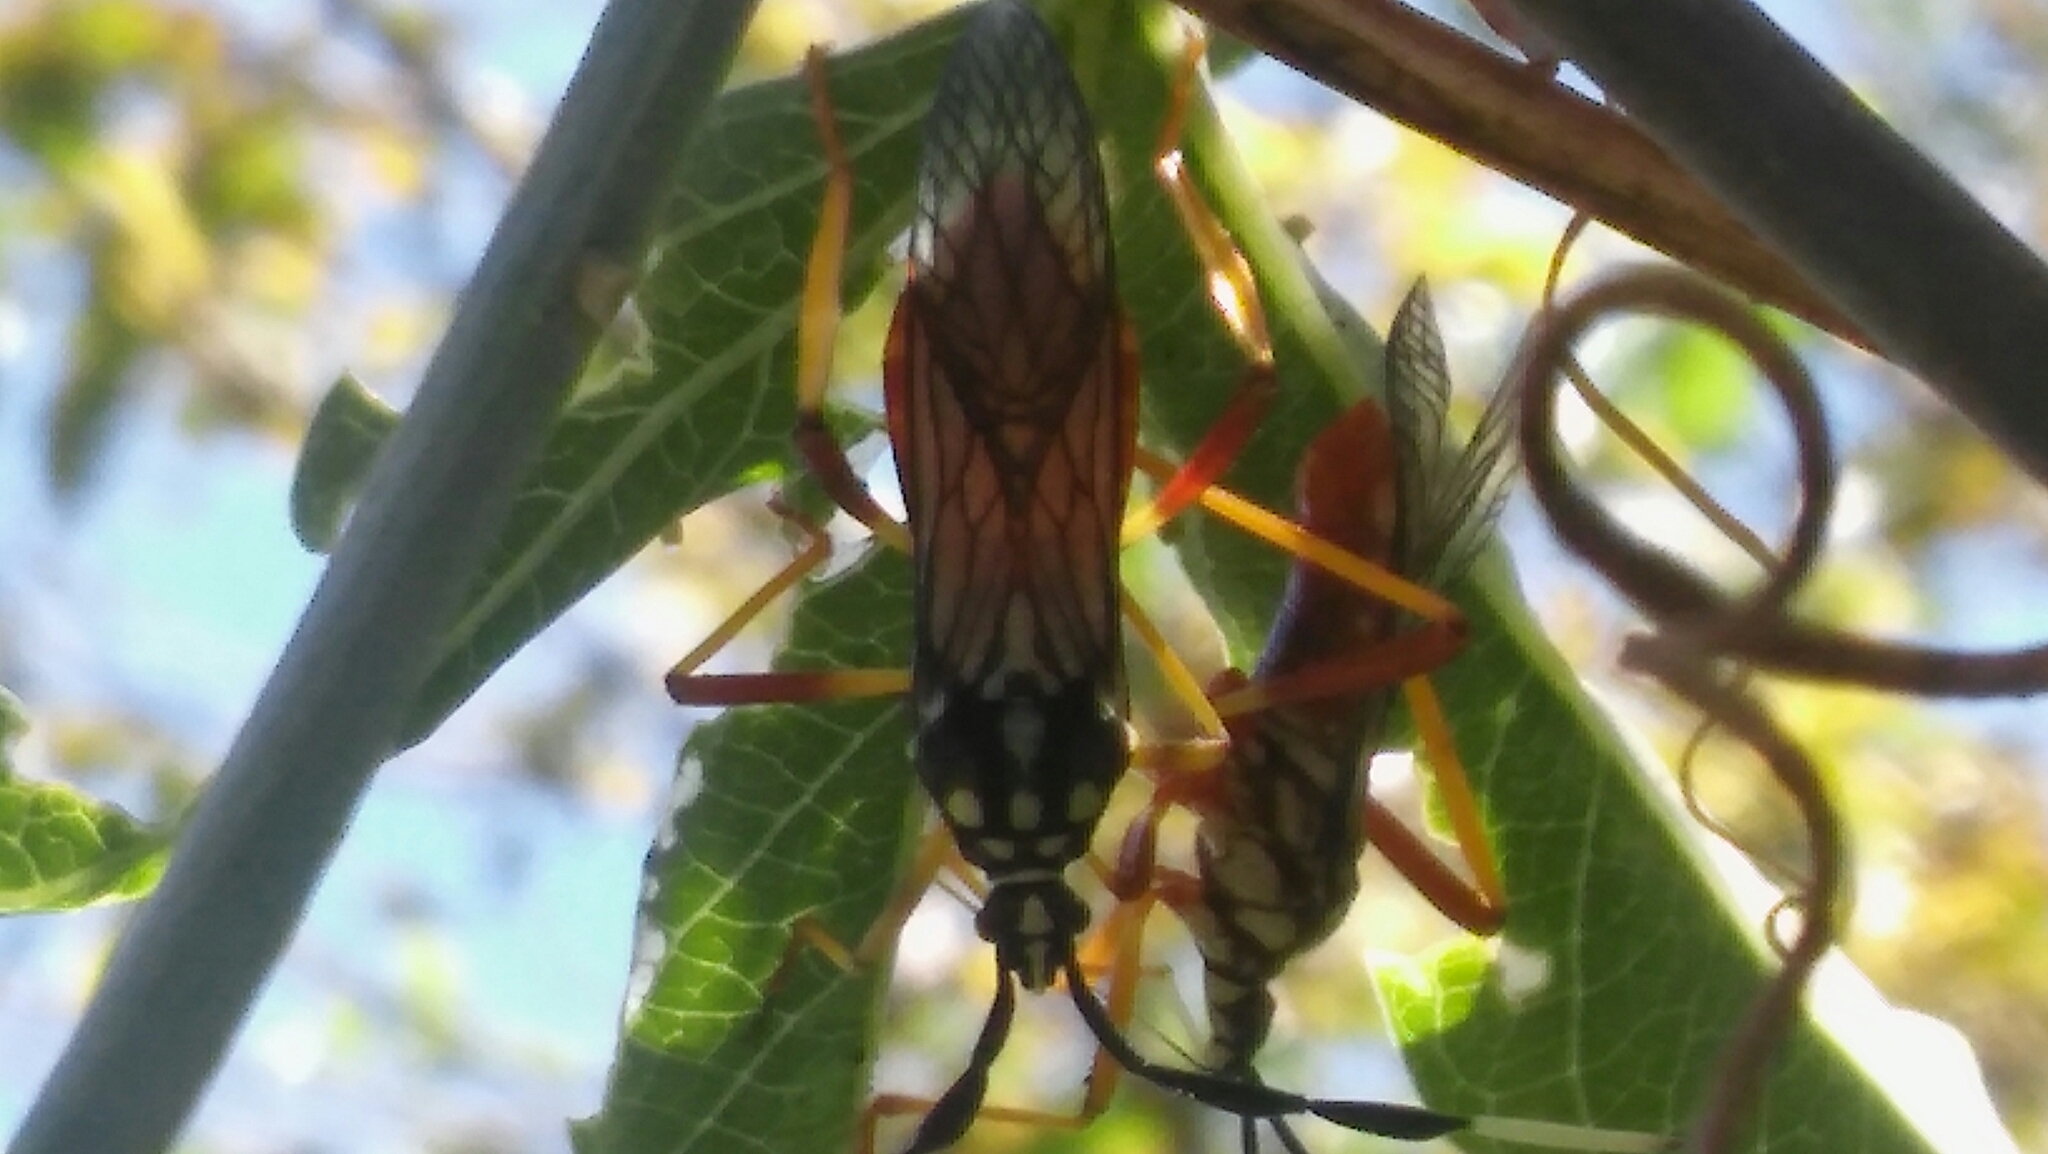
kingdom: Animalia
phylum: Arthropoda
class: Insecta
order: Hemiptera
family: Coreidae
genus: Holhymenia
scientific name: Holhymenia histrio
